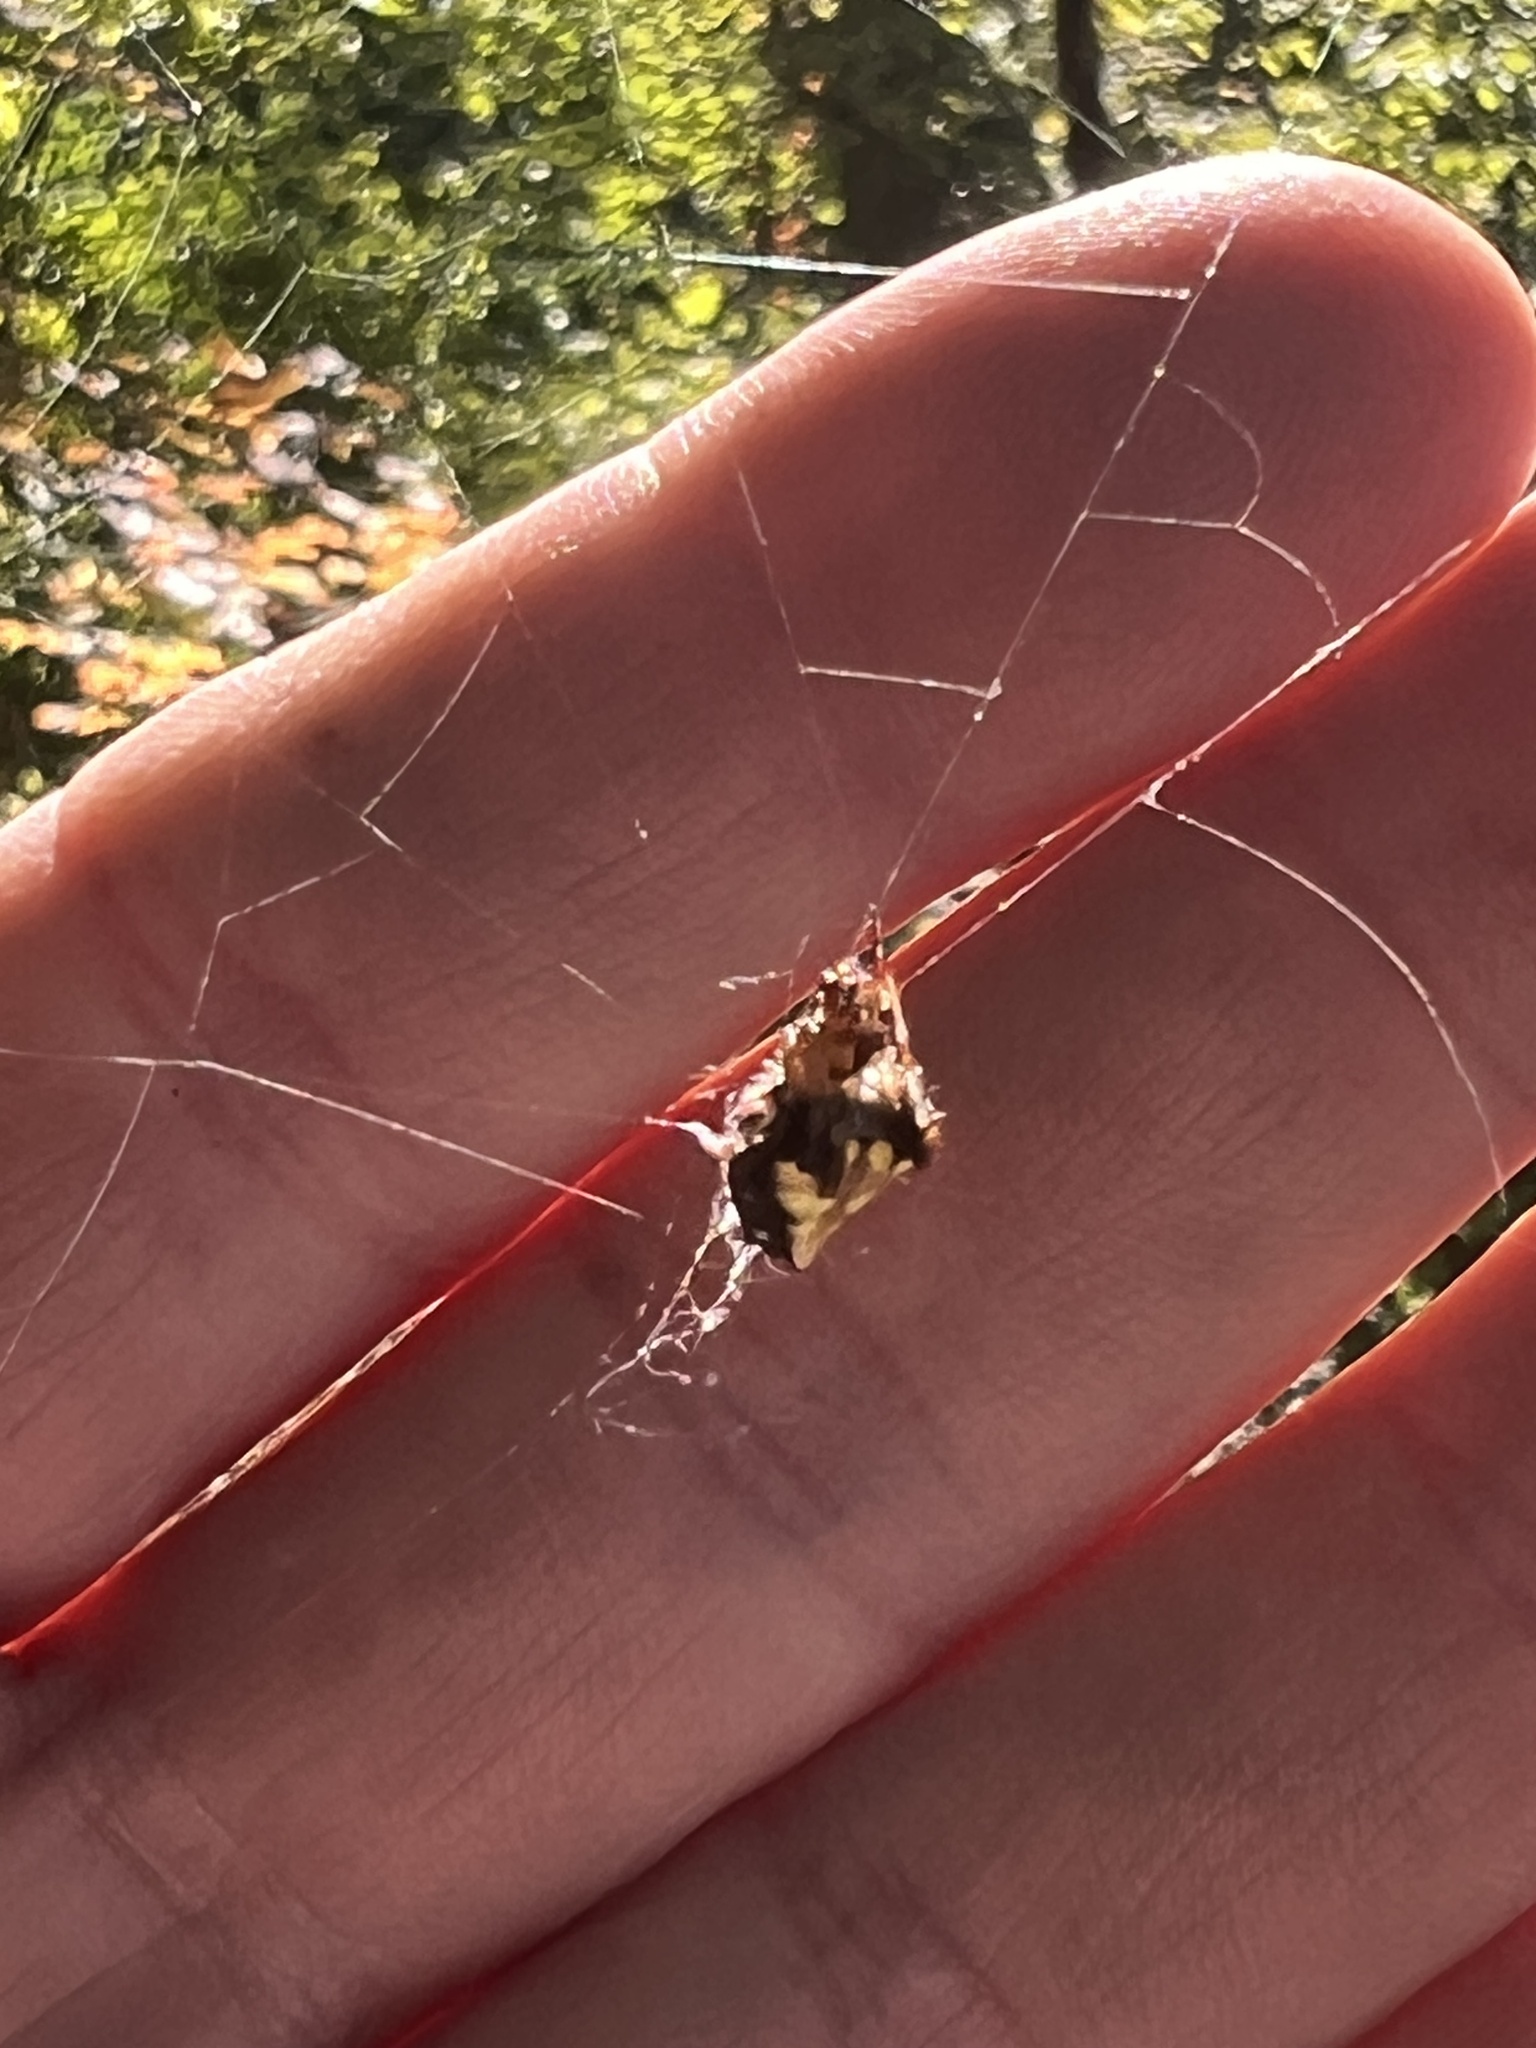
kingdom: Animalia
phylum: Arthropoda
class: Arachnida
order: Araneae
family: Araneidae
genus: Verrucosa
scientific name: Verrucosa arenata
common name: Orb weavers
